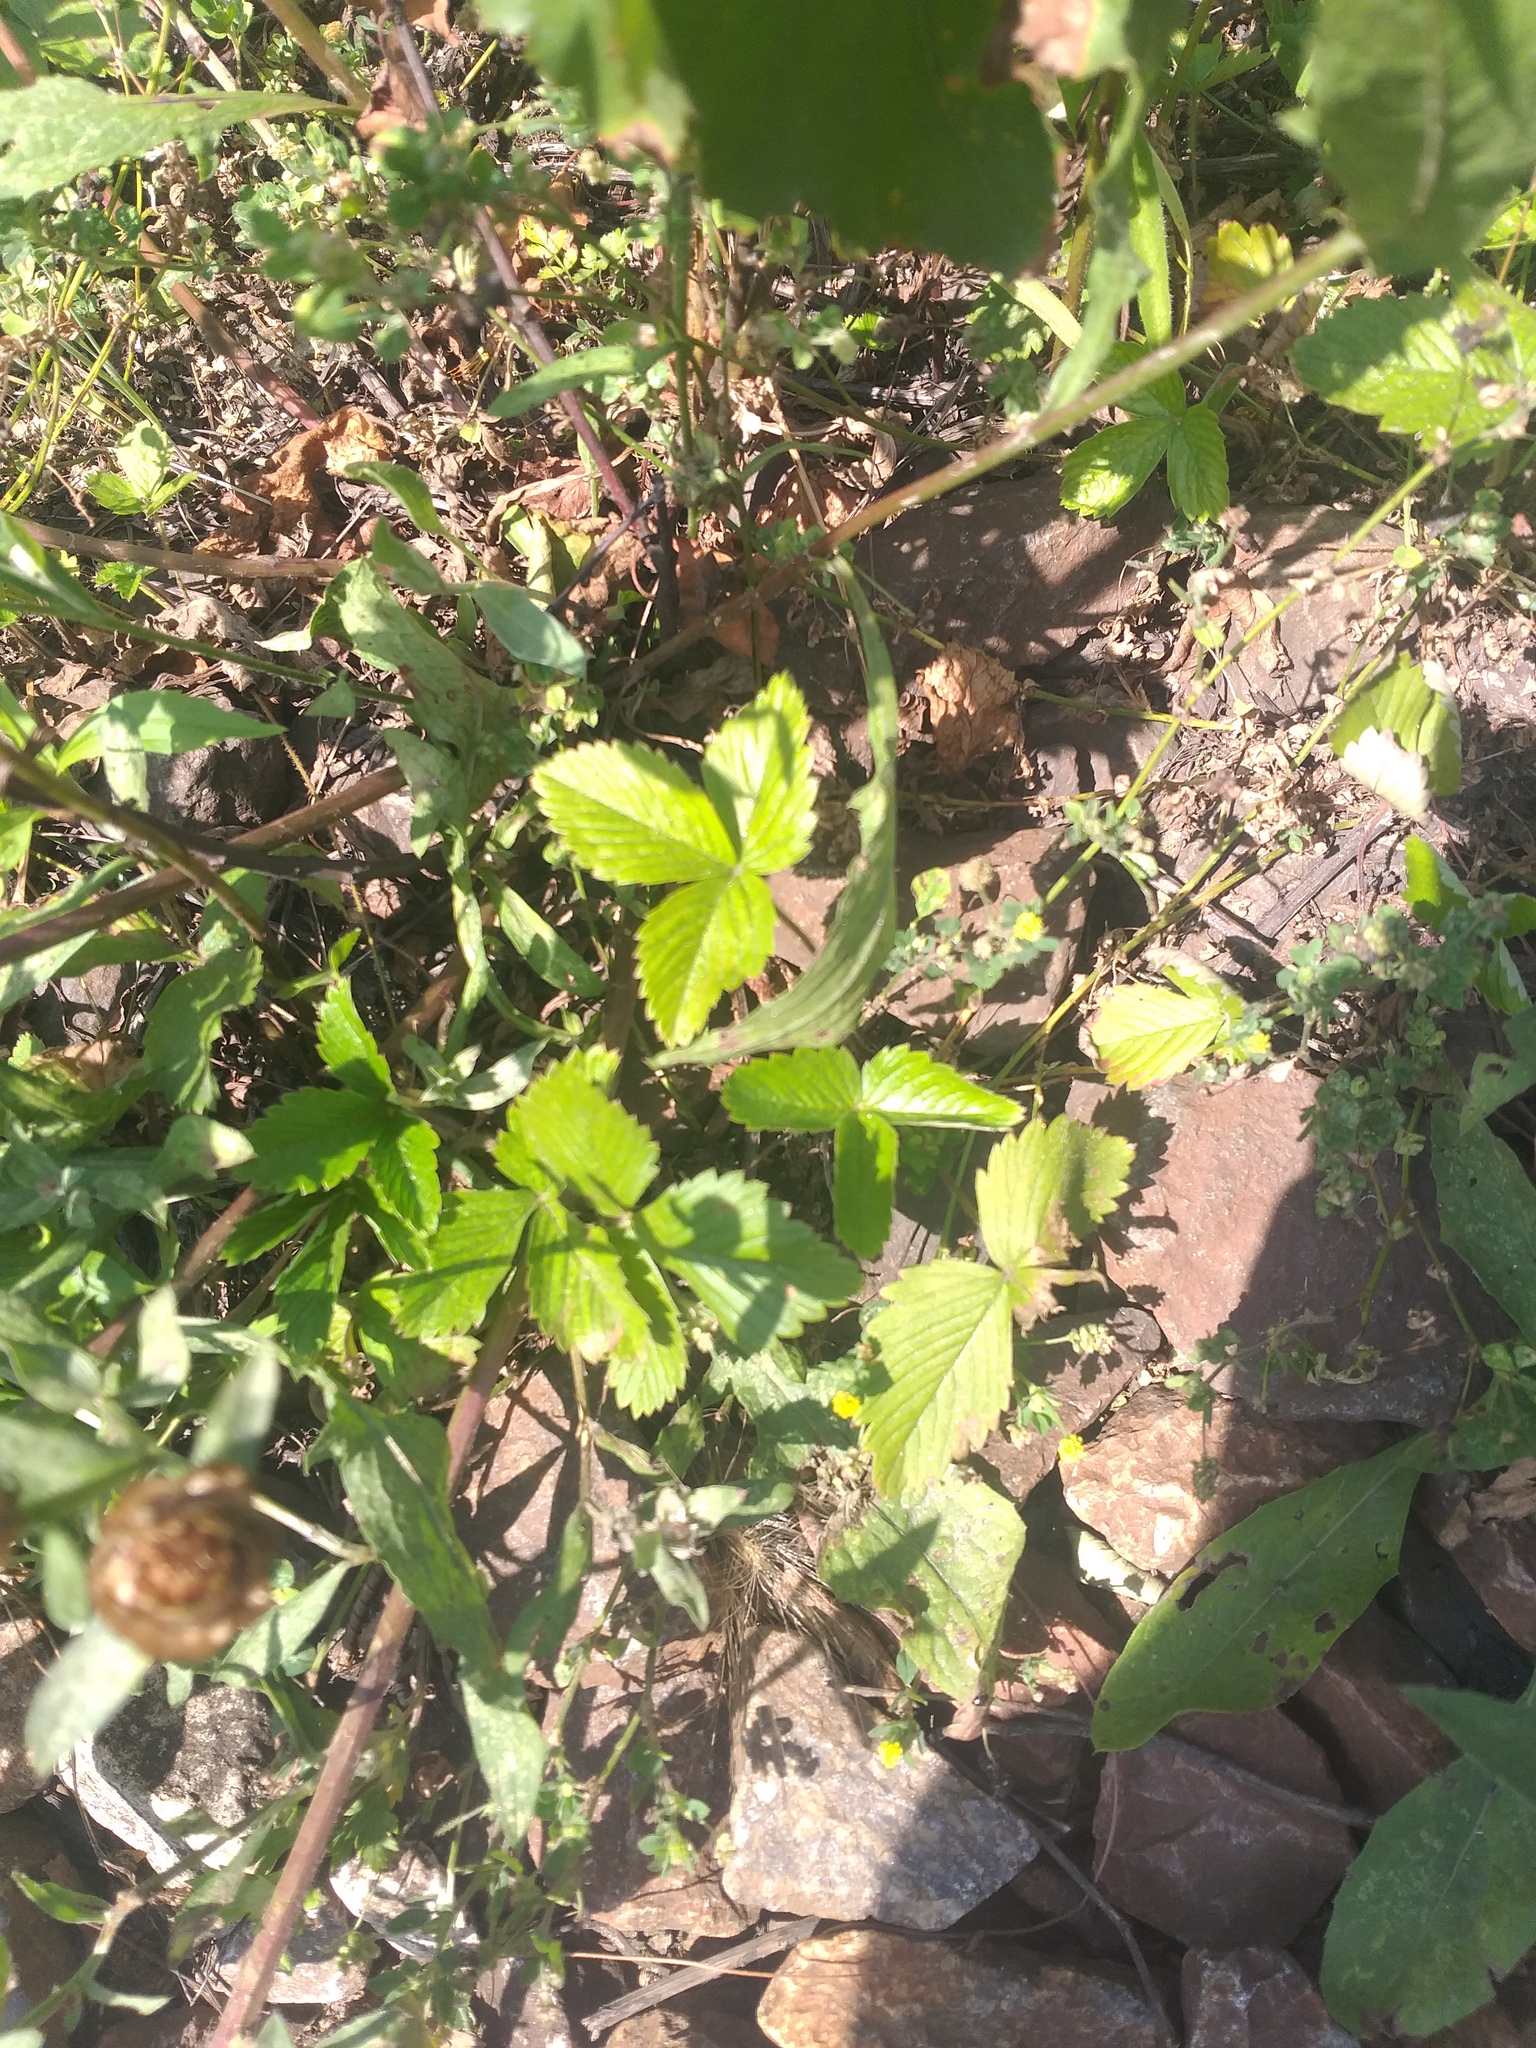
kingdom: Plantae
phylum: Tracheophyta
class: Magnoliopsida
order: Rosales
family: Rosaceae
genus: Fragaria
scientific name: Fragaria vesca
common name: Wild strawberry
